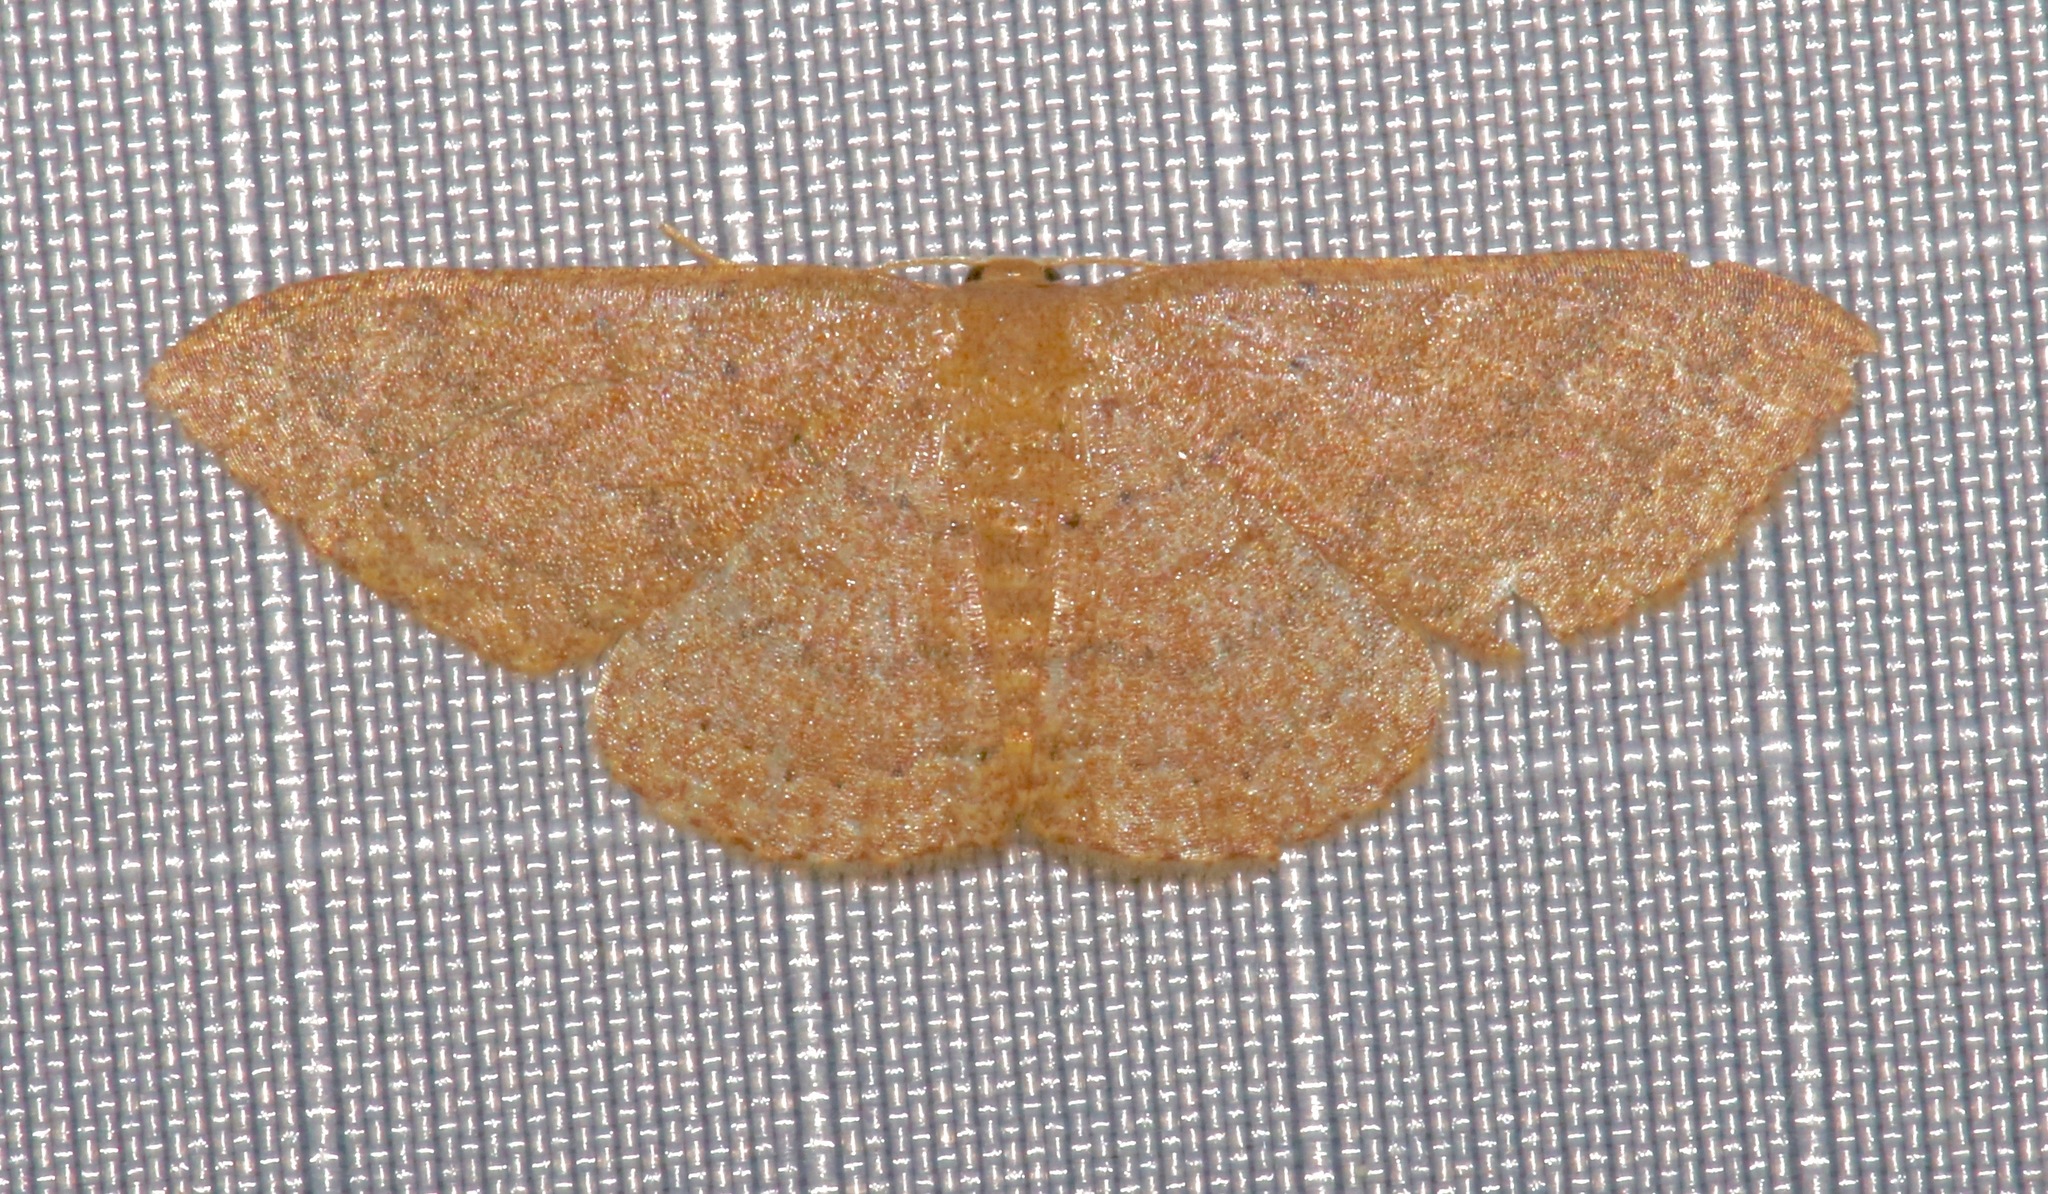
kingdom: Animalia
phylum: Arthropoda
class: Insecta
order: Lepidoptera
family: Geometridae
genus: Pleuroprucha
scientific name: Pleuroprucha insulsaria
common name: Common tan wave
